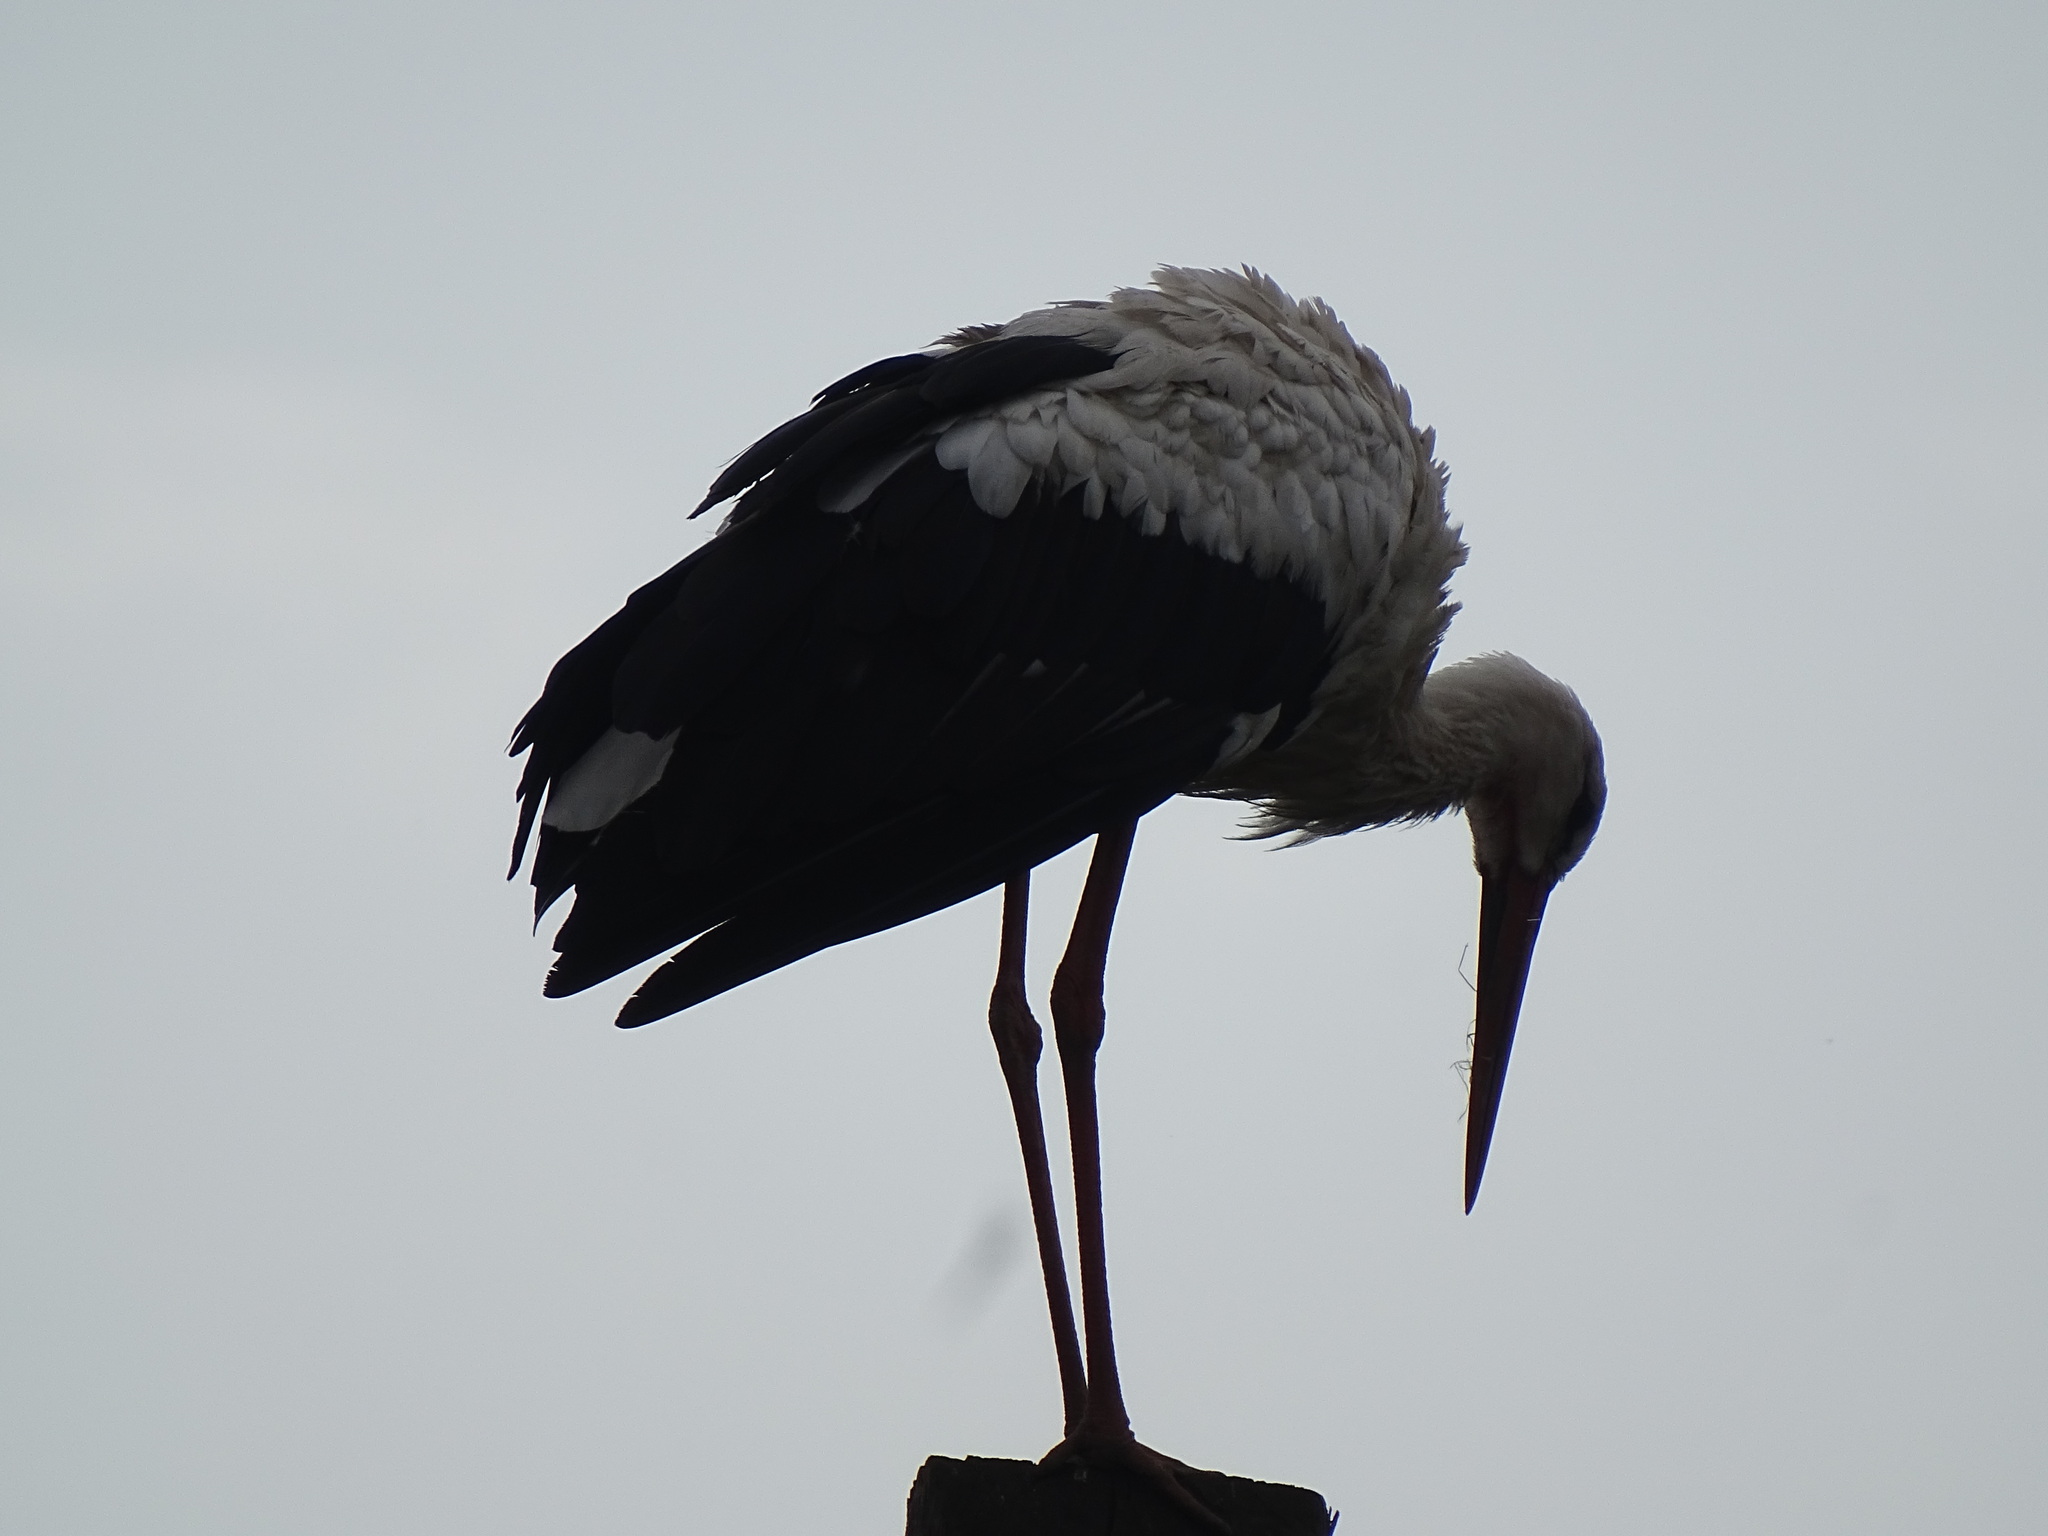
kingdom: Animalia
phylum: Chordata
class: Aves
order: Ciconiiformes
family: Ciconiidae
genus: Ciconia
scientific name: Ciconia ciconia
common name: White stork
